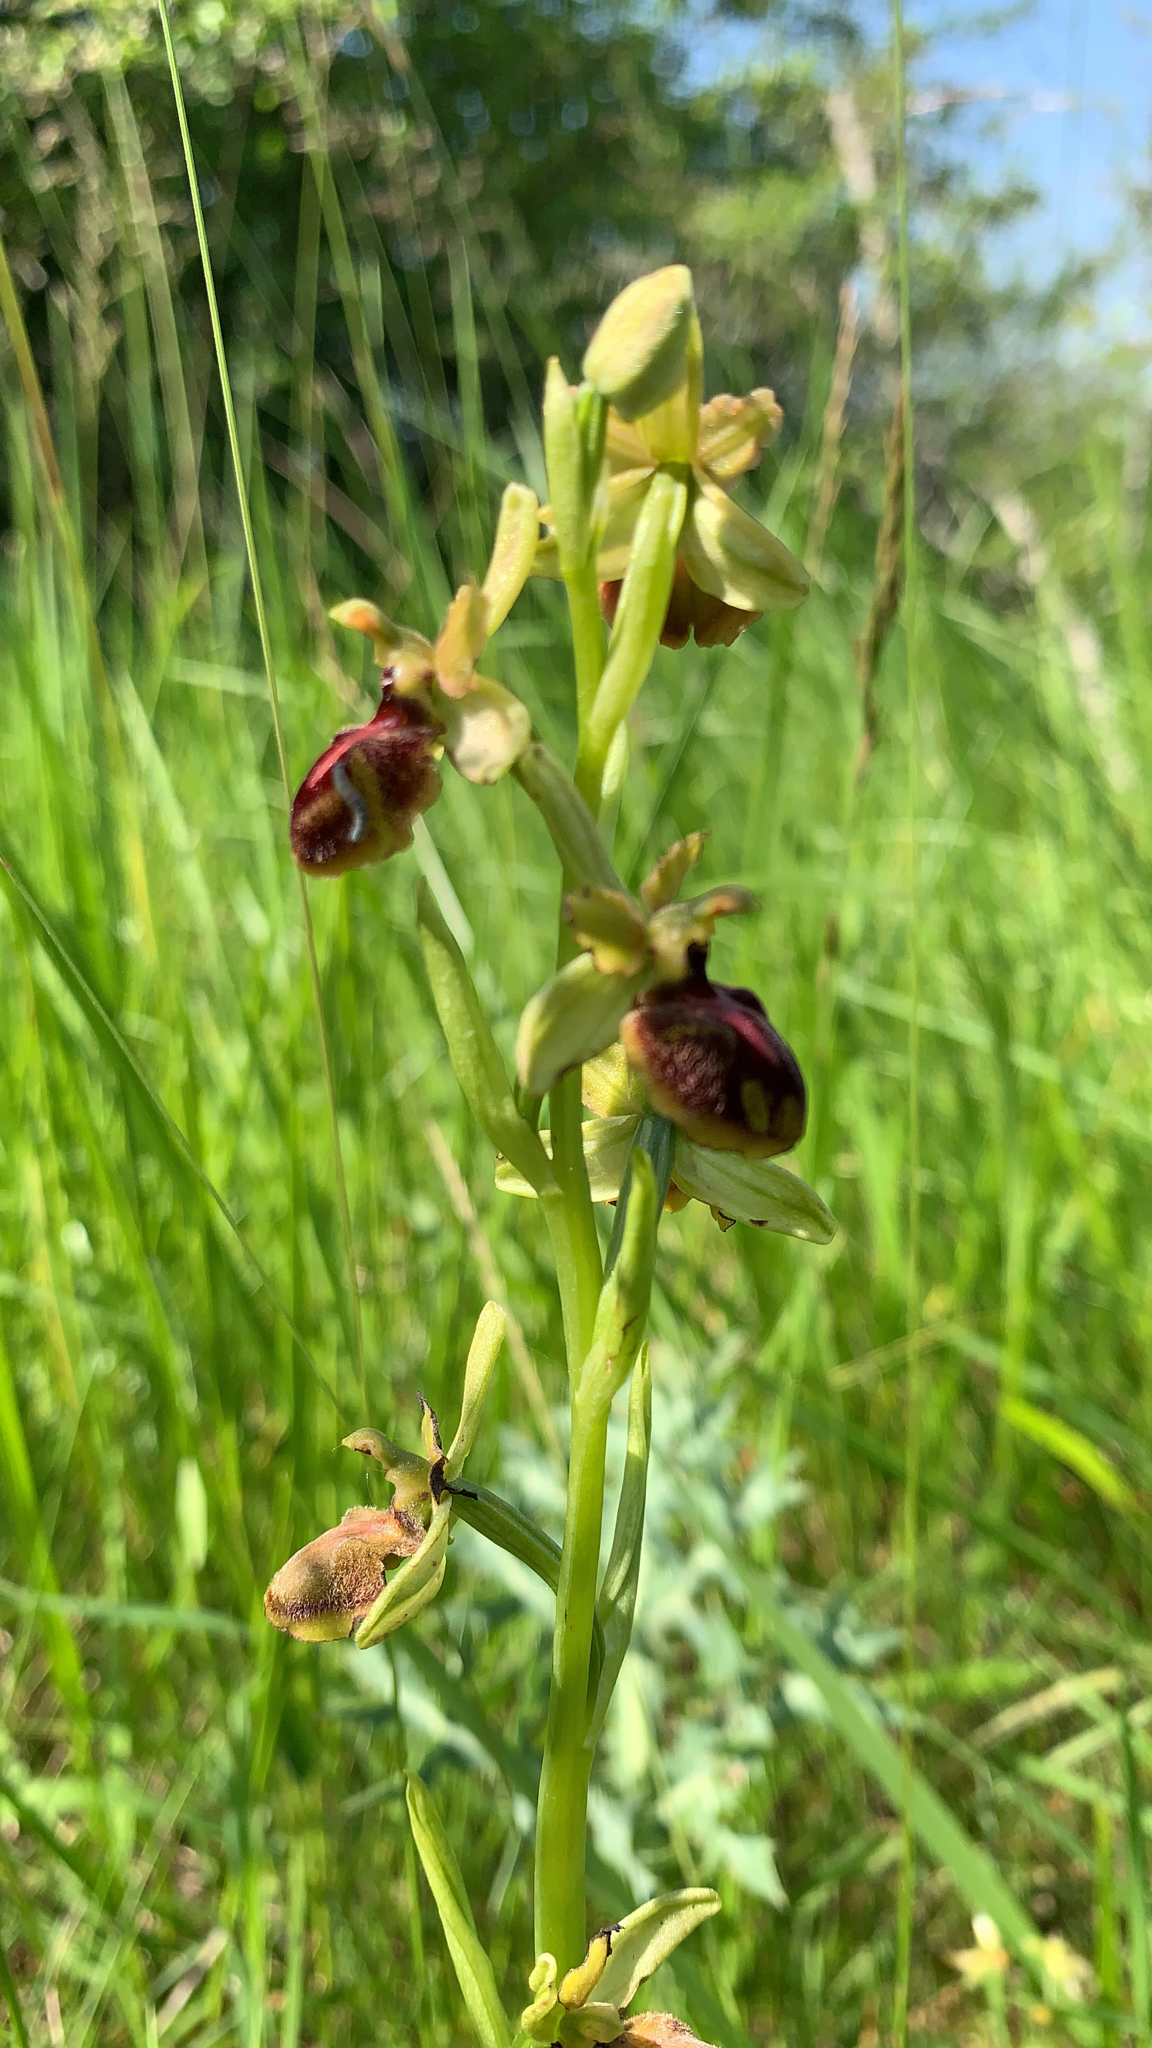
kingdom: Plantae
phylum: Tracheophyta
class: Liliopsida
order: Asparagales
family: Orchidaceae
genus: Ophrys
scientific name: Ophrys sphegodes
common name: Early spider-orchid
